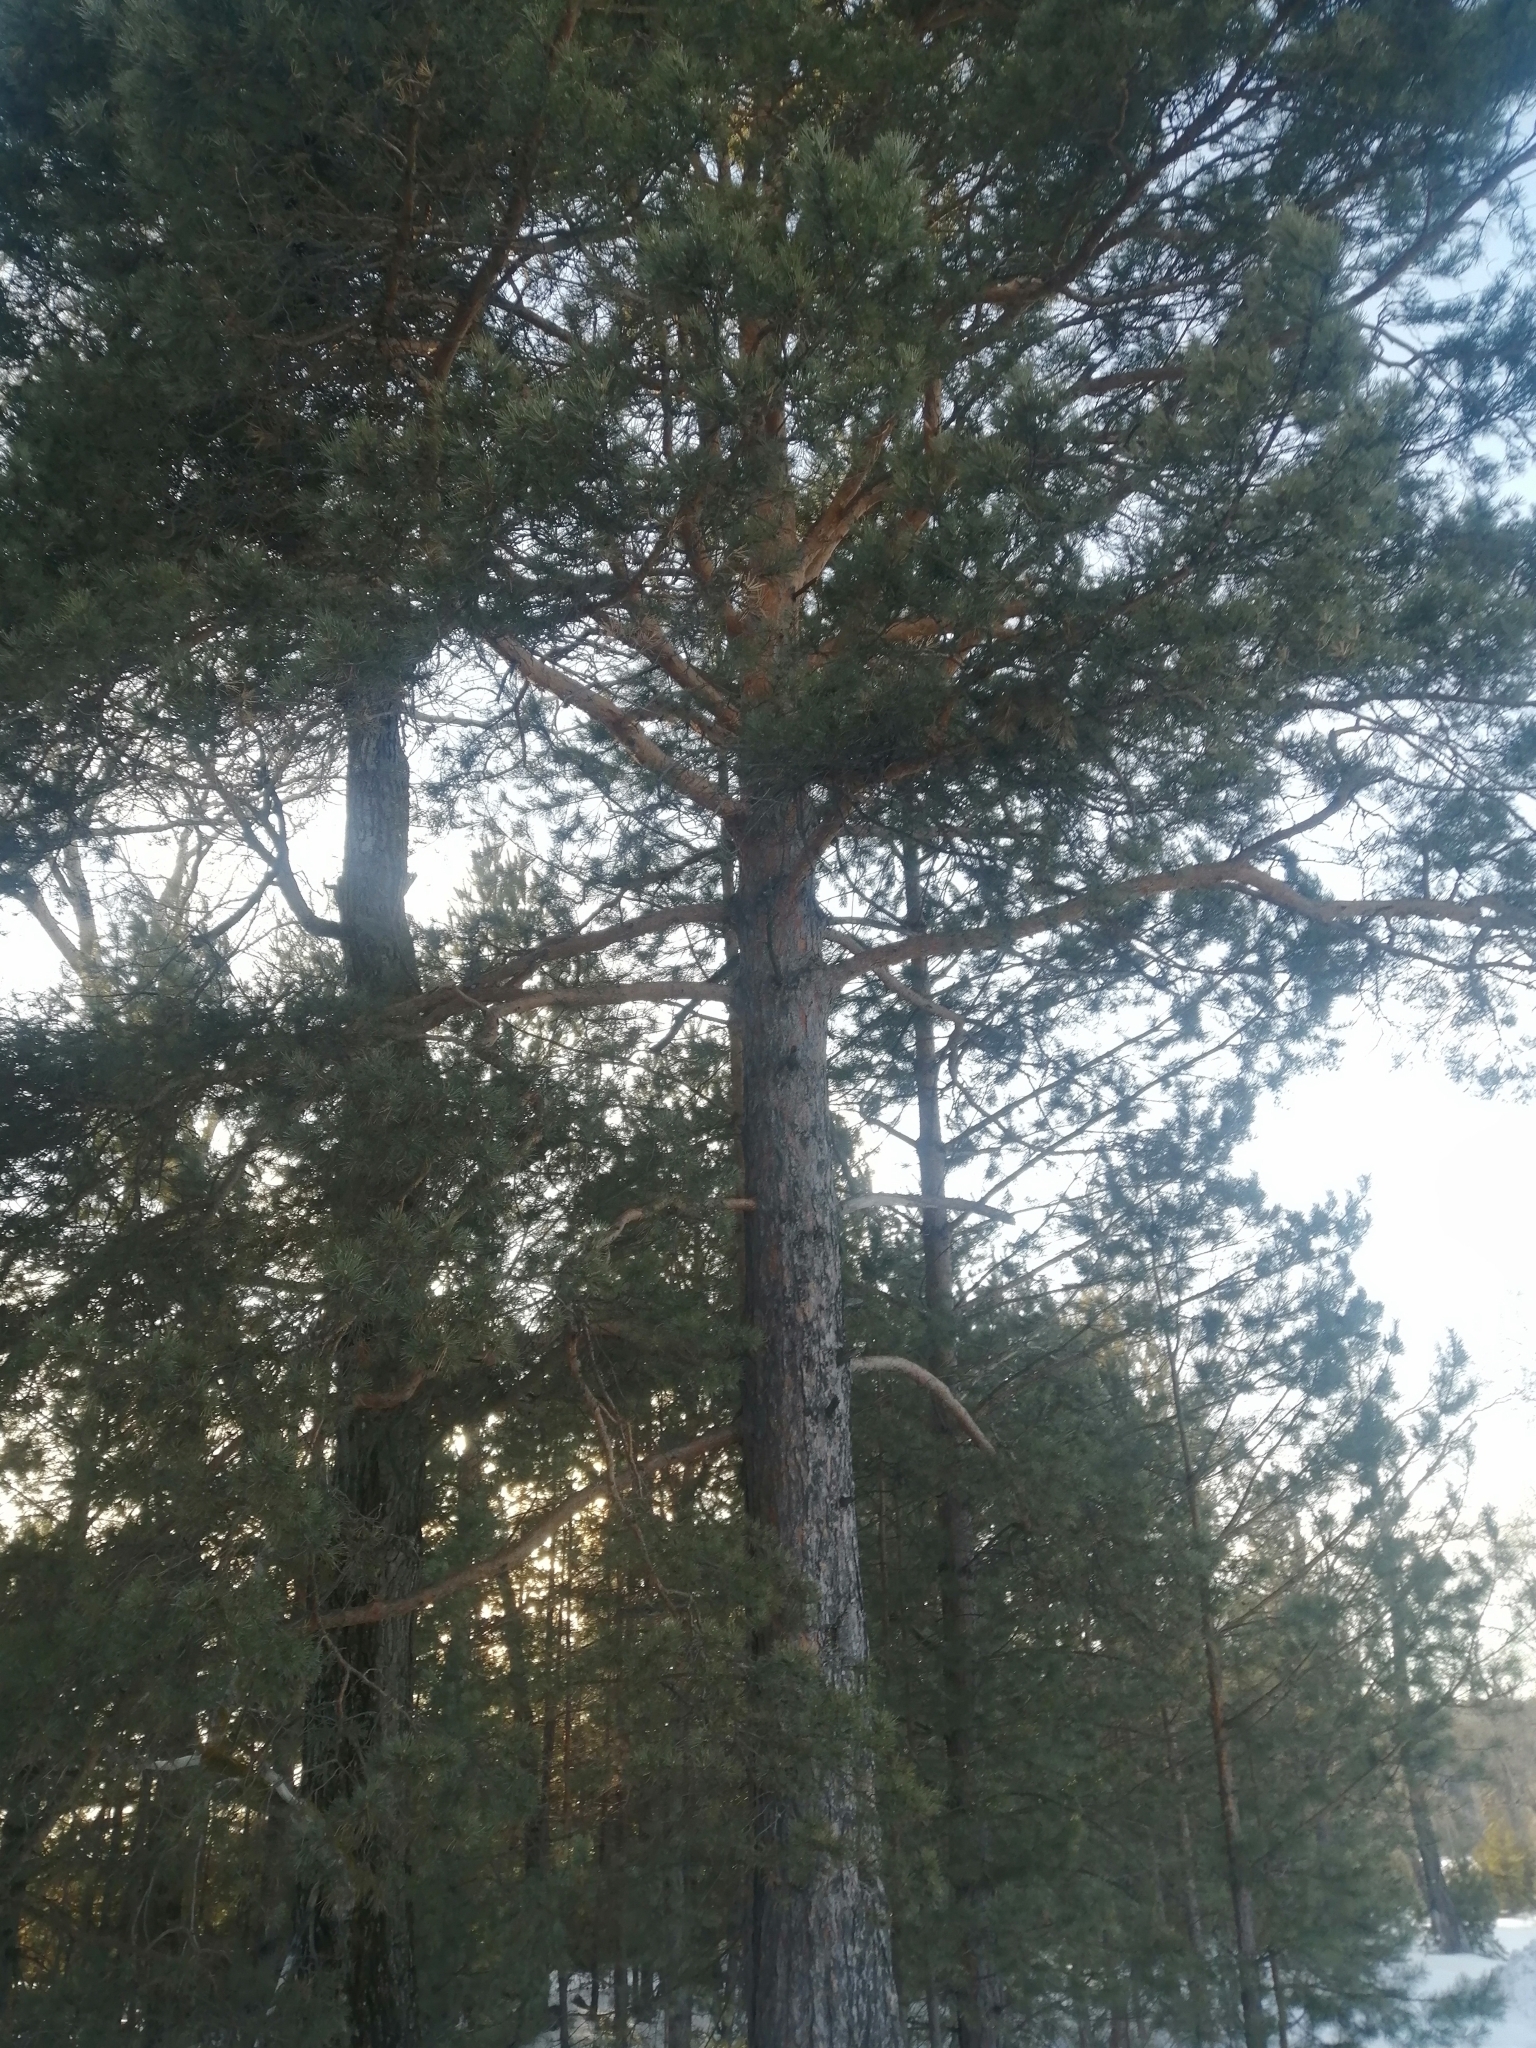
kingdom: Plantae
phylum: Tracheophyta
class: Pinopsida
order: Pinales
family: Pinaceae
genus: Pinus
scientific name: Pinus sylvestris
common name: Scots pine
